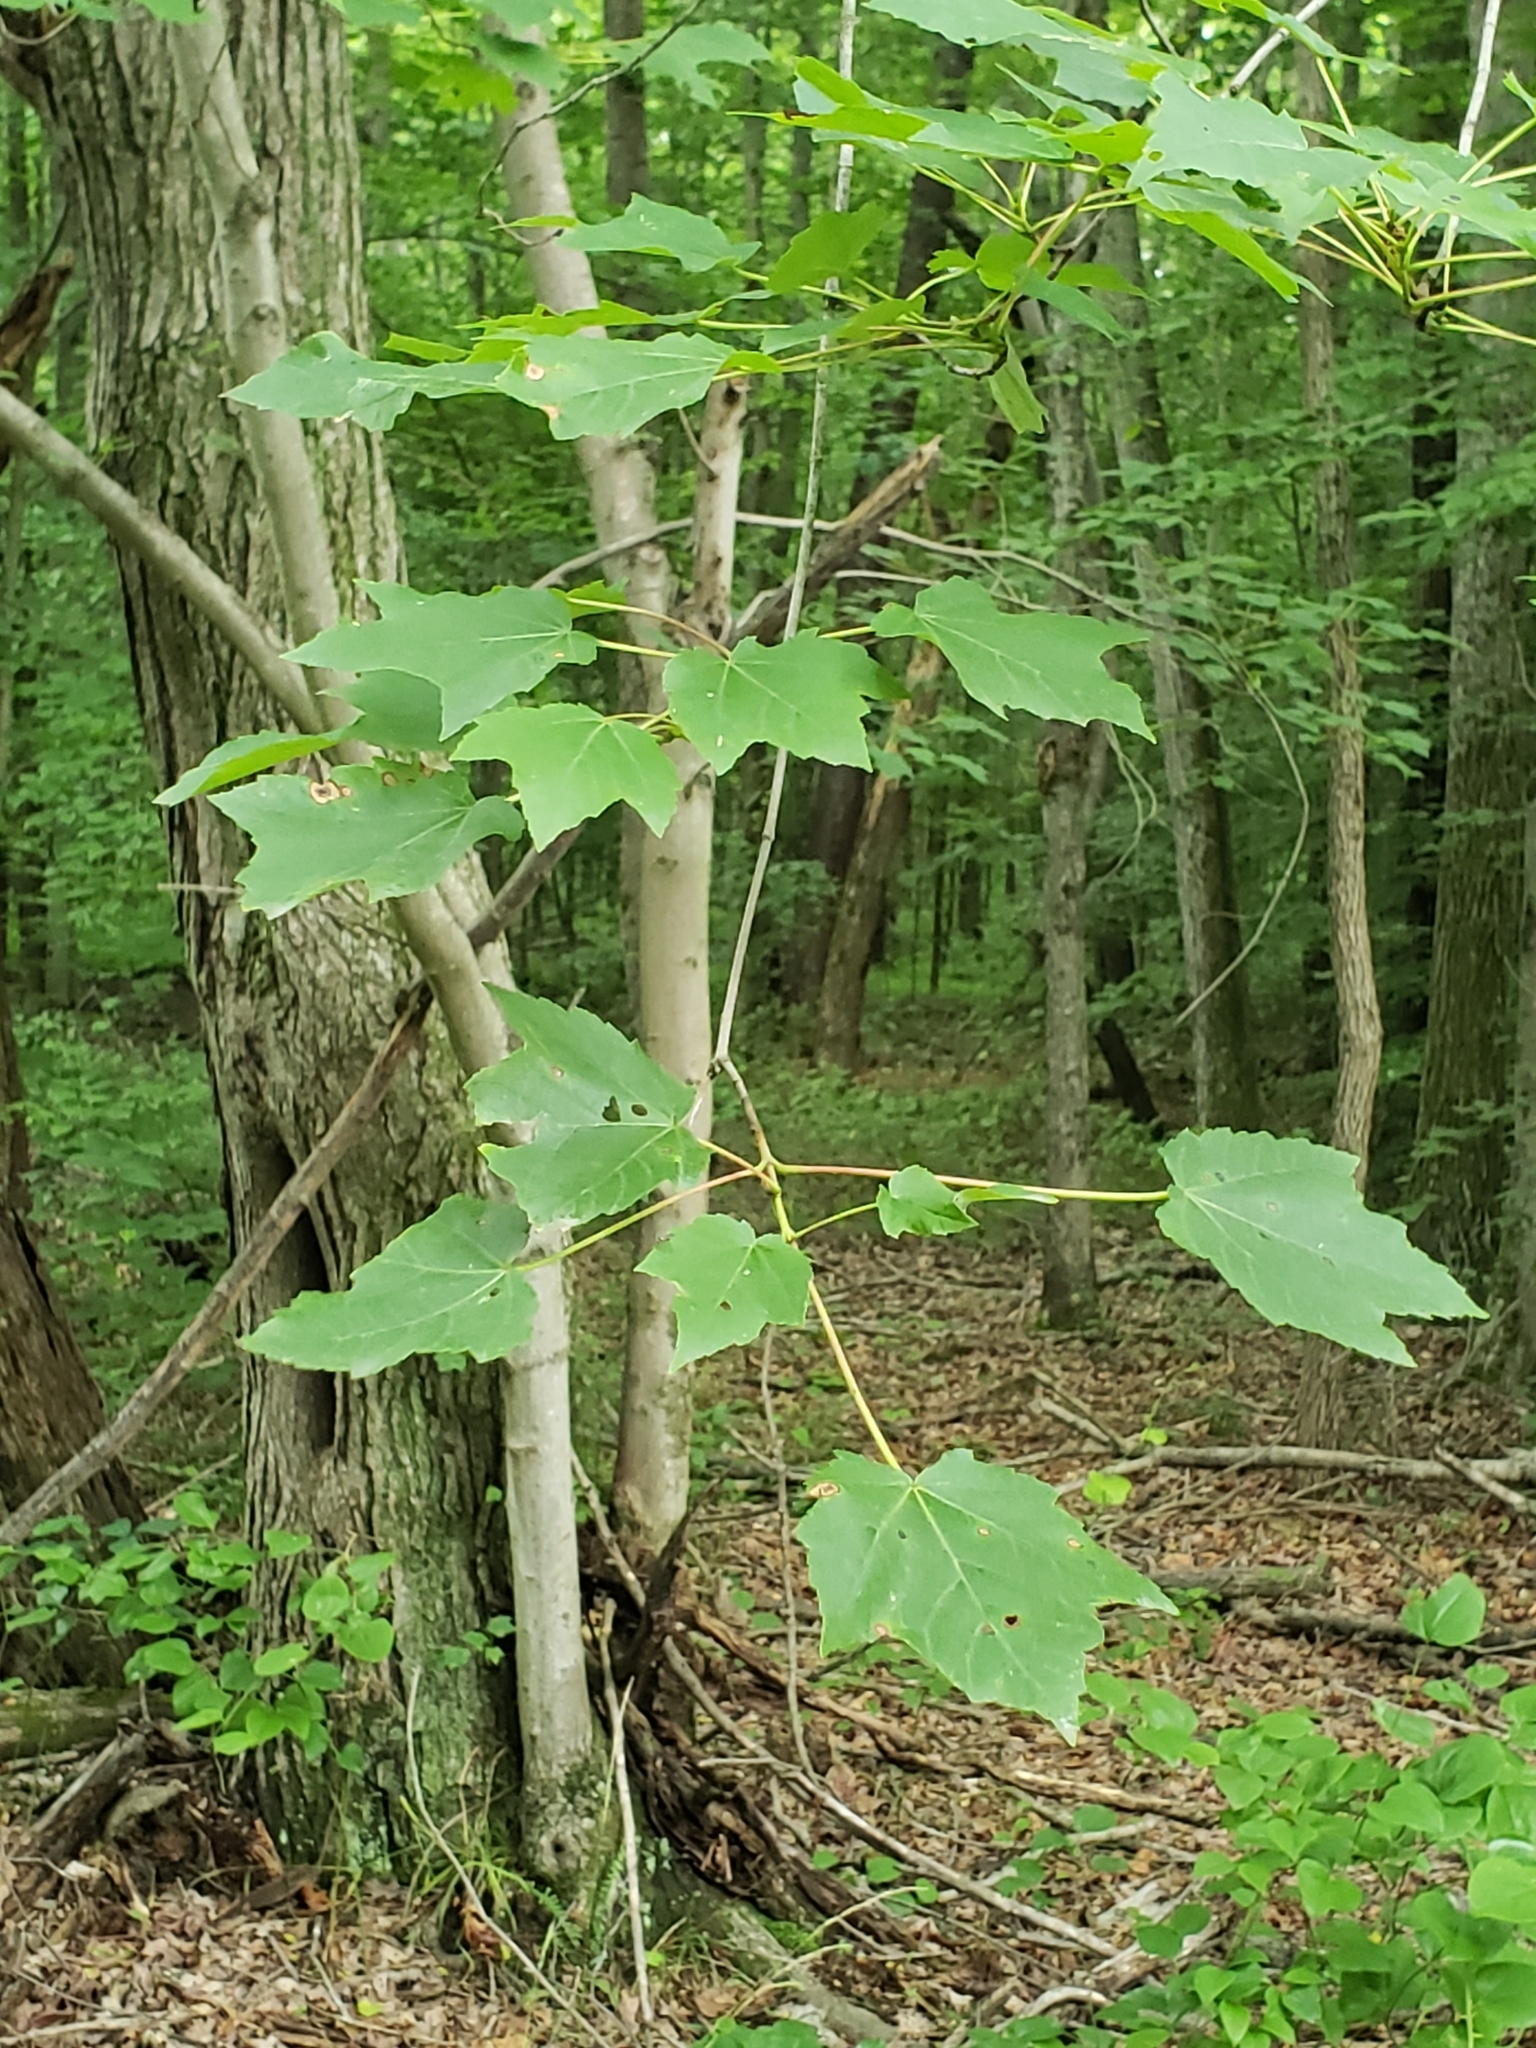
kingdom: Plantae
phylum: Tracheophyta
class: Magnoliopsida
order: Sapindales
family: Sapindaceae
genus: Acer
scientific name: Acer rubrum
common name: Red maple
